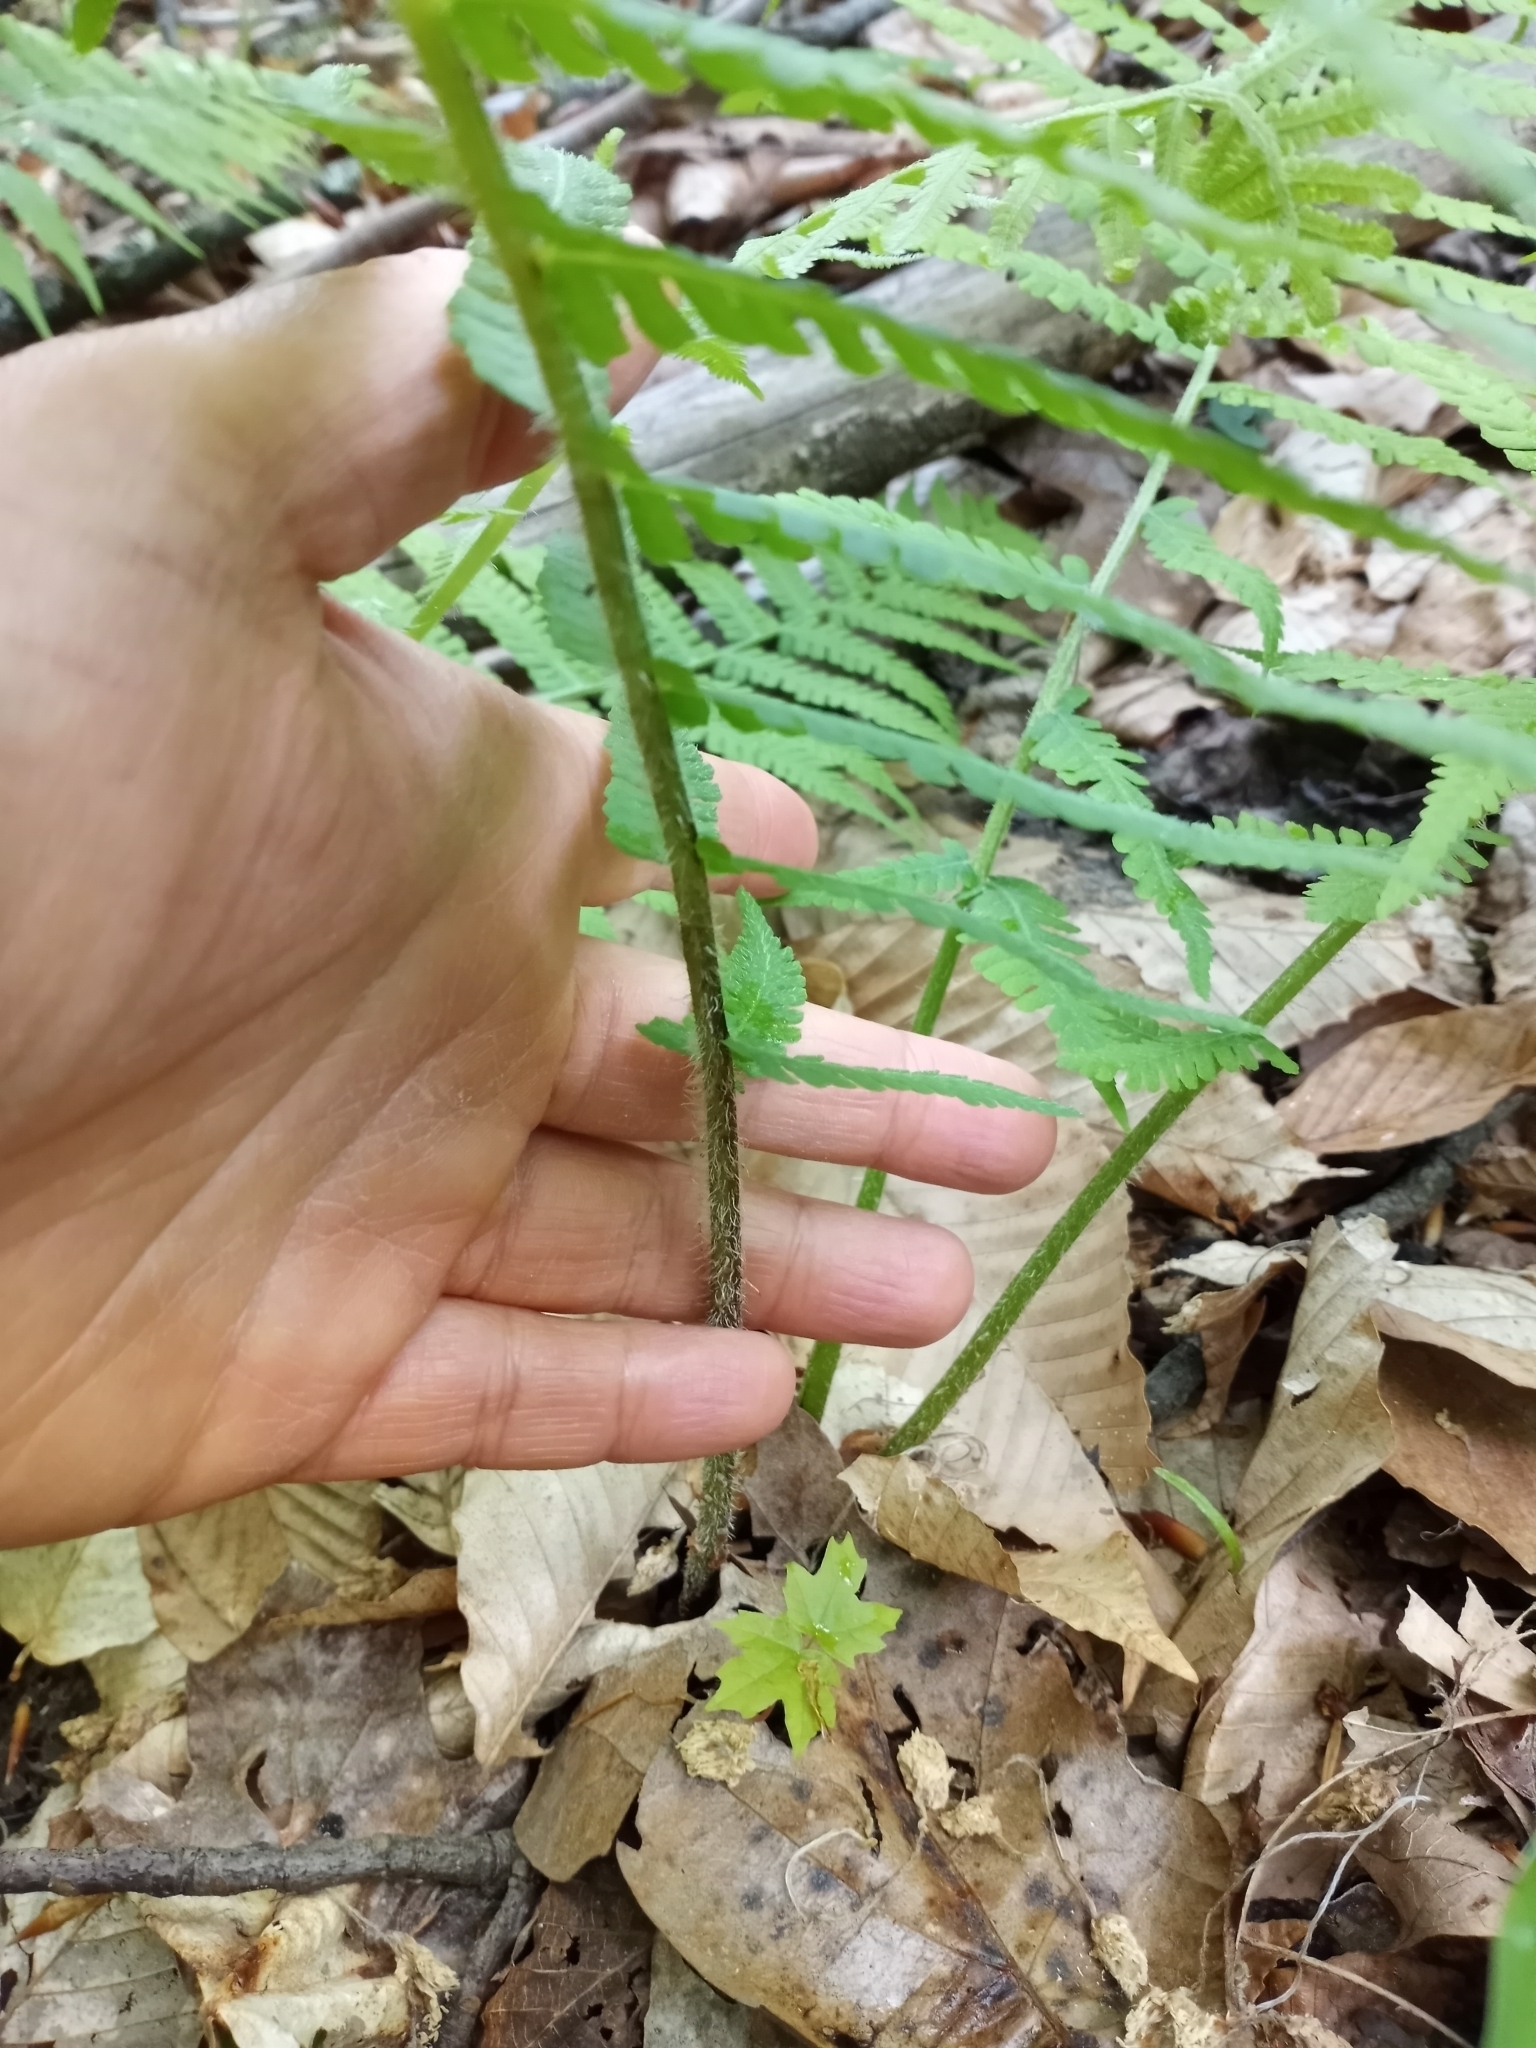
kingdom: Plantae
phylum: Tracheophyta
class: Polypodiopsida
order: Polypodiales
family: Athyriaceae
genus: Deparia
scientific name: Deparia acrostichoides
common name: Silver false spleenwort
